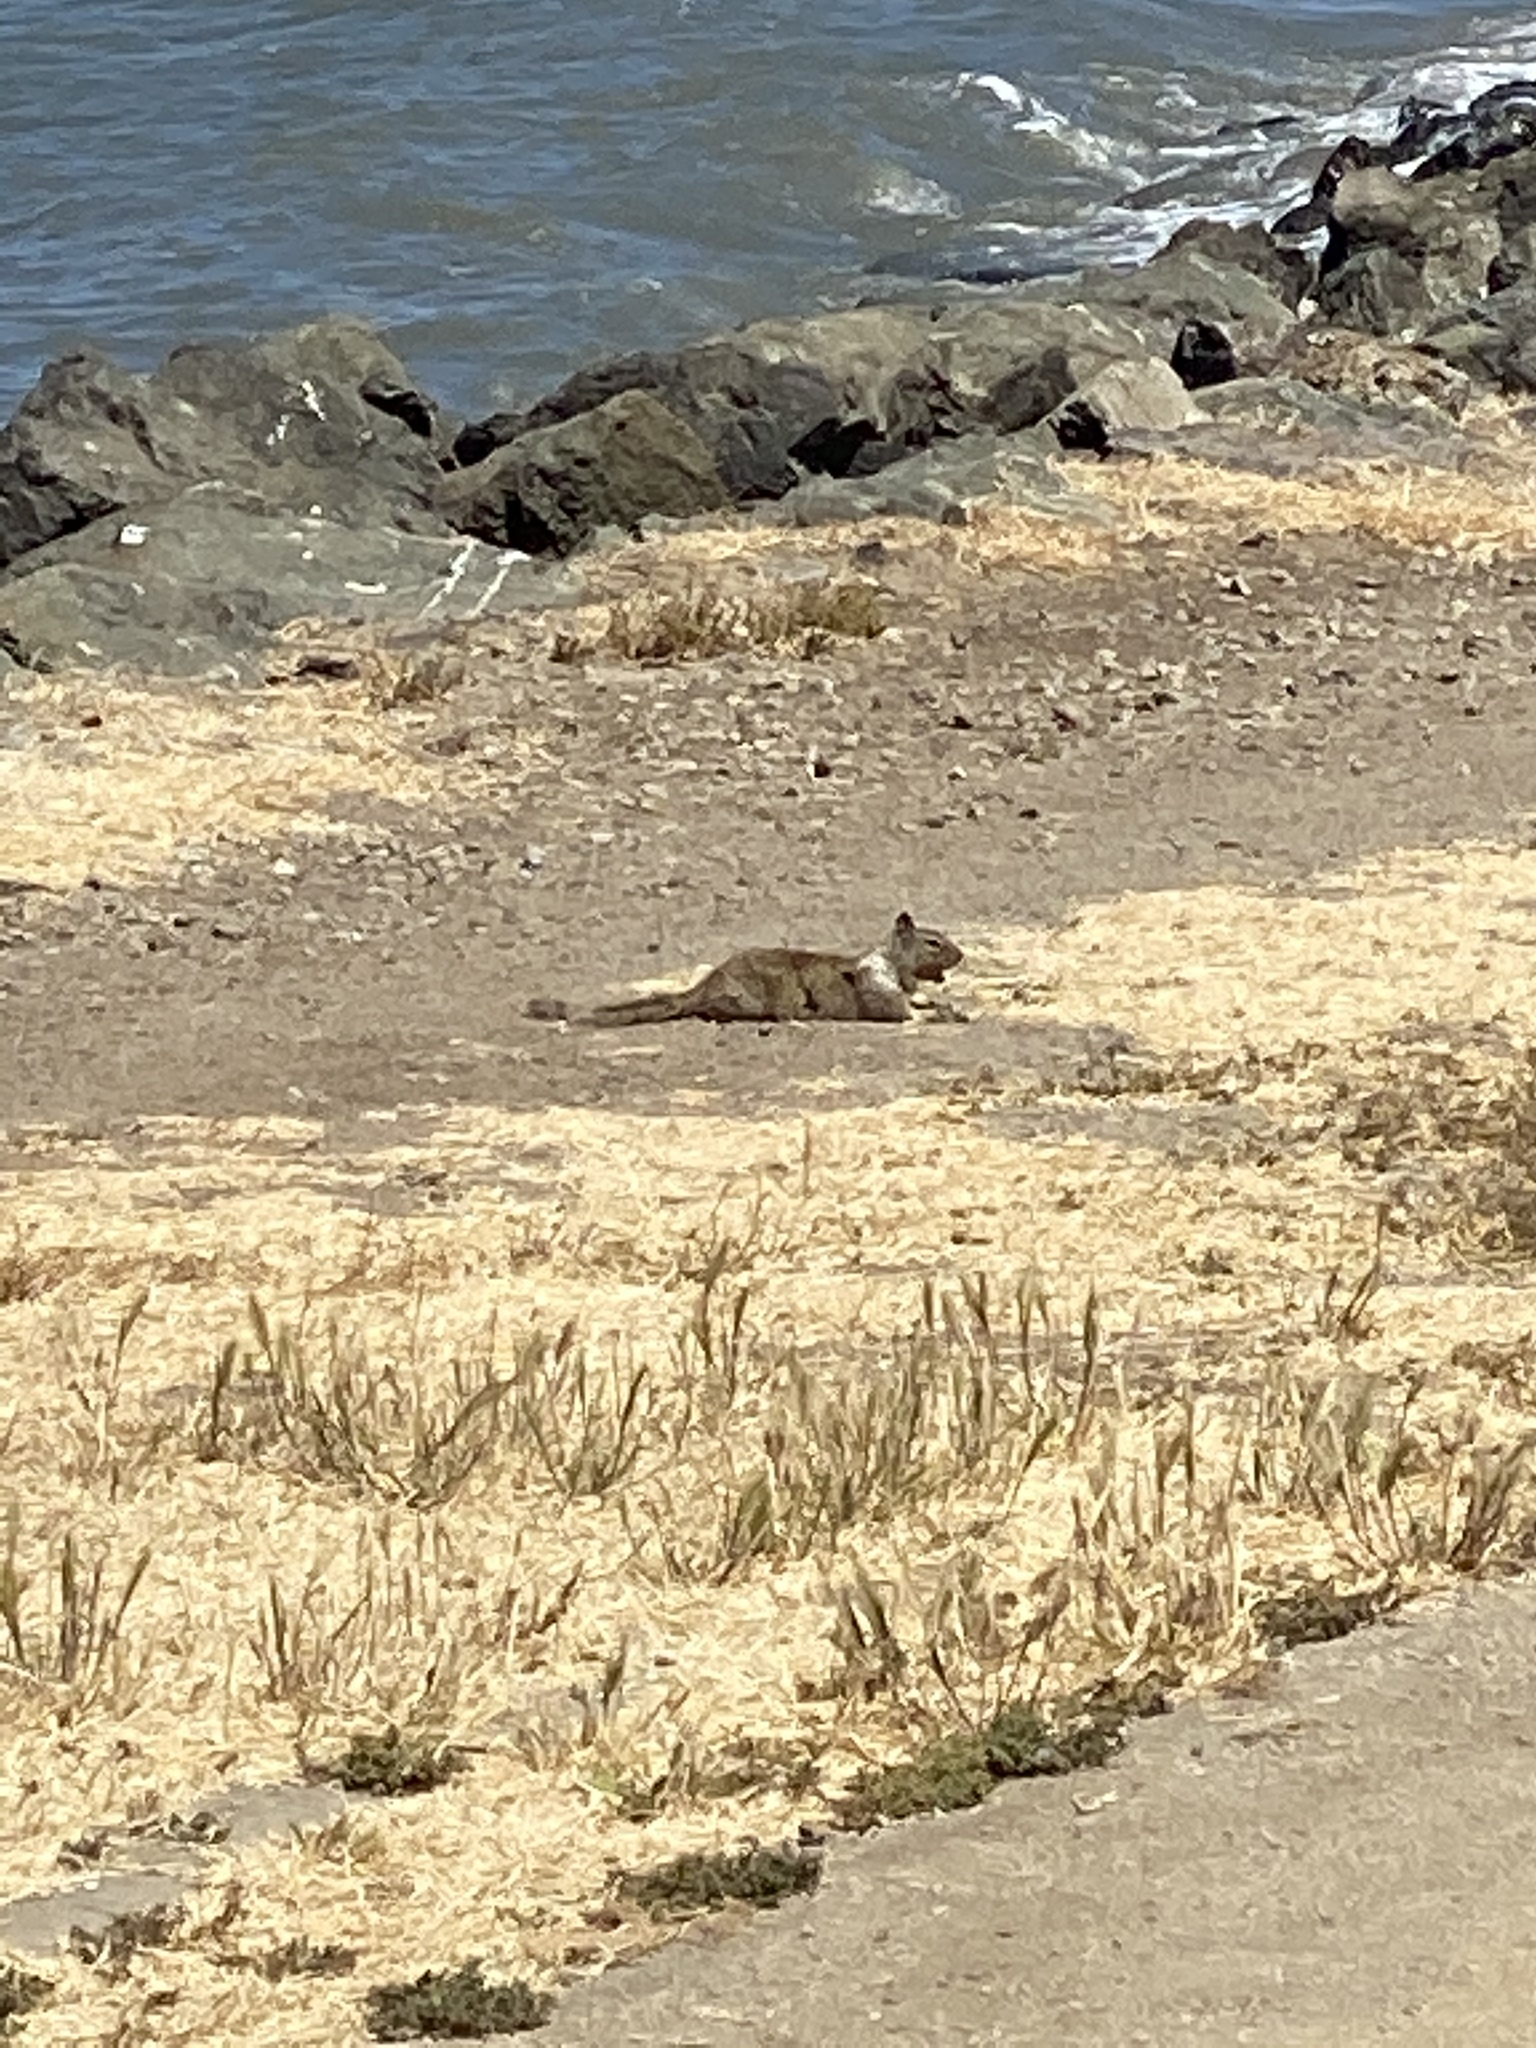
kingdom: Animalia
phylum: Chordata
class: Mammalia
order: Rodentia
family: Sciuridae
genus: Otospermophilus
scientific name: Otospermophilus beecheyi
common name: California ground squirrel
